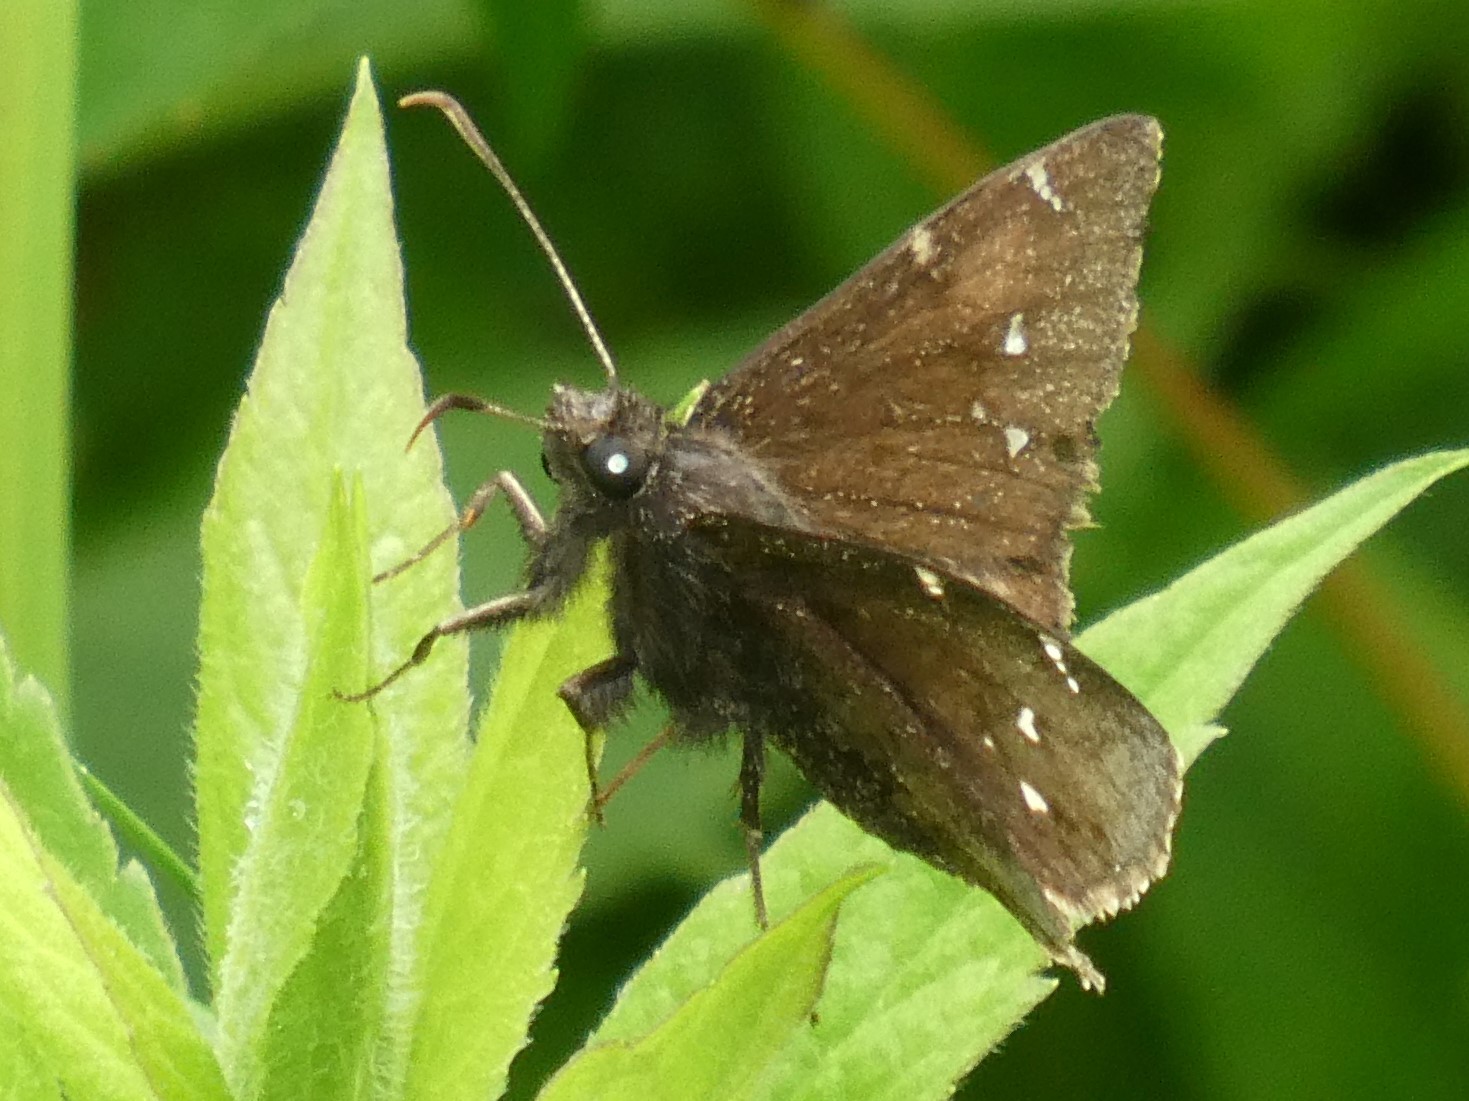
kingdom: Animalia
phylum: Arthropoda
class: Insecta
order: Lepidoptera
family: Hesperiidae
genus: Thorybes
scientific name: Thorybes pylades
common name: Northern cloudywing
